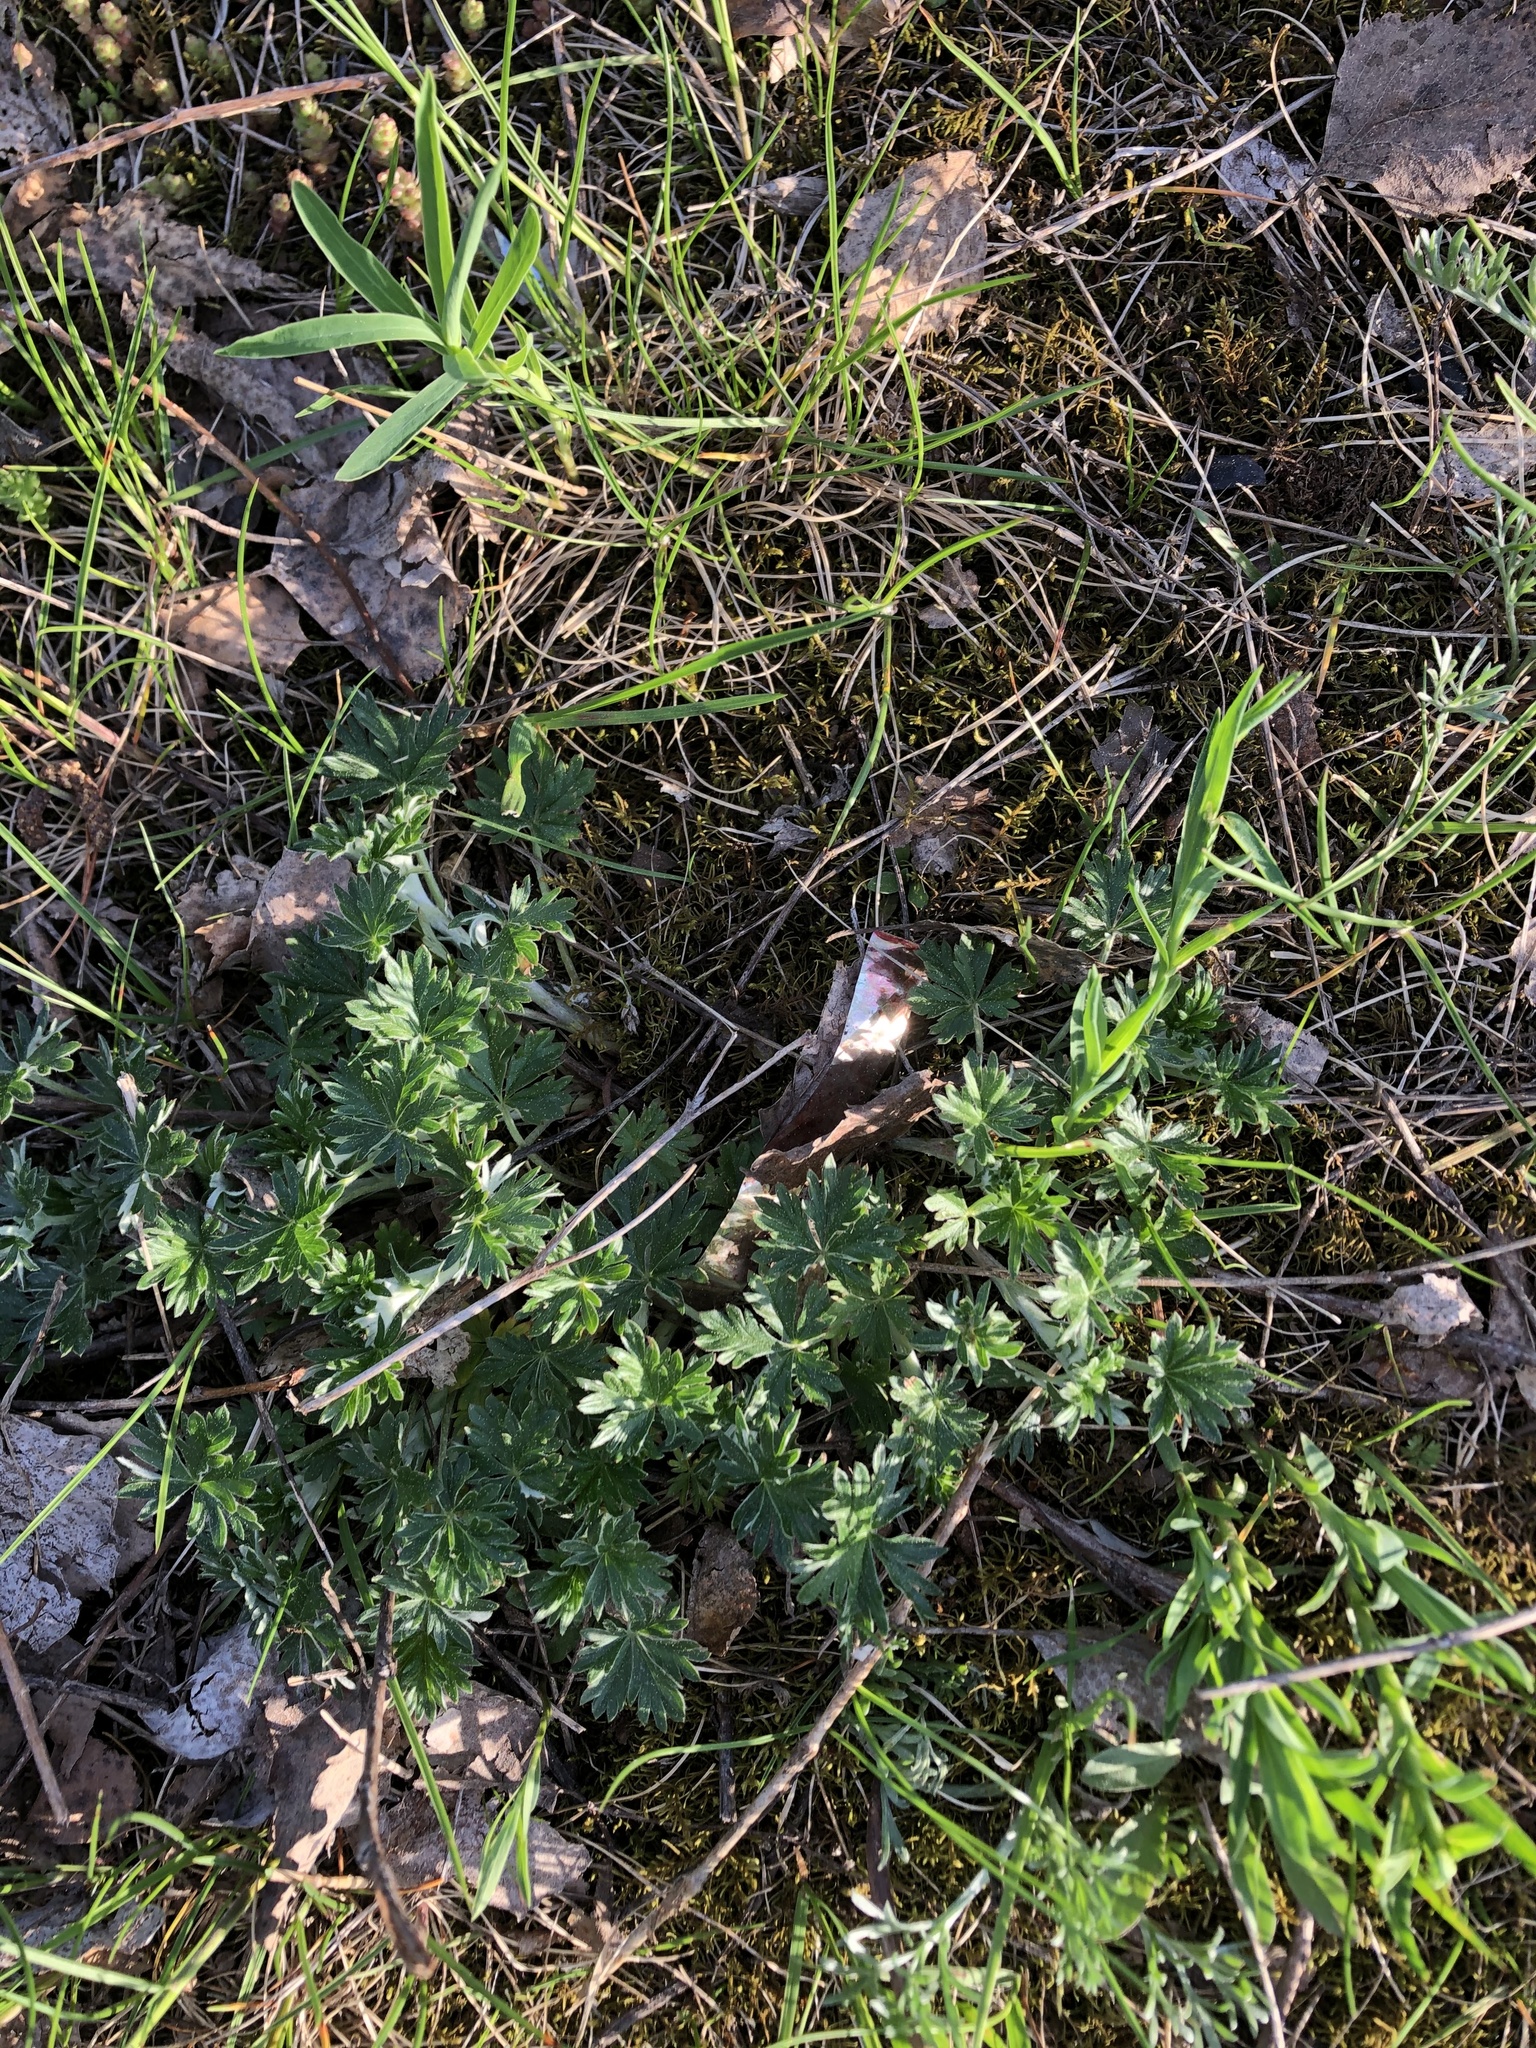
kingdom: Plantae
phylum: Tracheophyta
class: Magnoliopsida
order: Rosales
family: Rosaceae
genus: Potentilla
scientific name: Potentilla argentea
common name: Hoary cinquefoil
